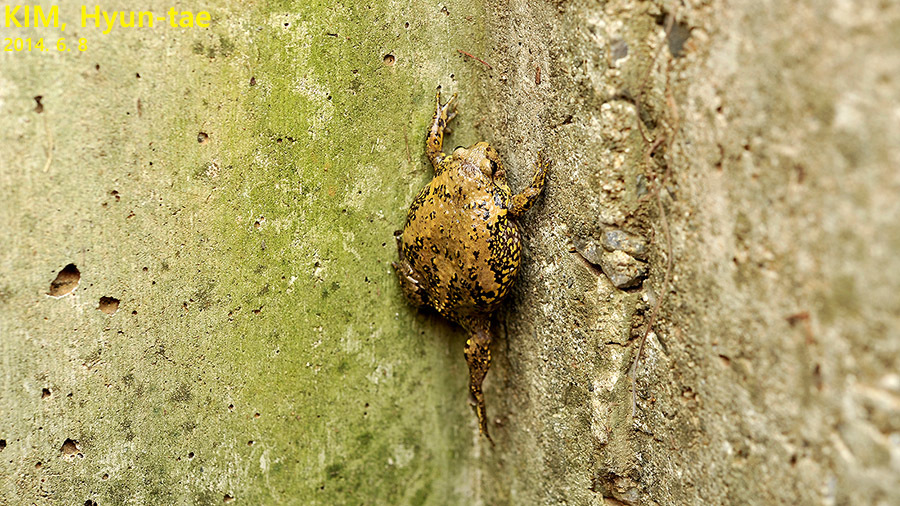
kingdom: Animalia
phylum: Chordata
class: Amphibia
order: Anura
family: Microhylidae
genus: Kaloula
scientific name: Kaloula borealis
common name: Boreal digging frog
